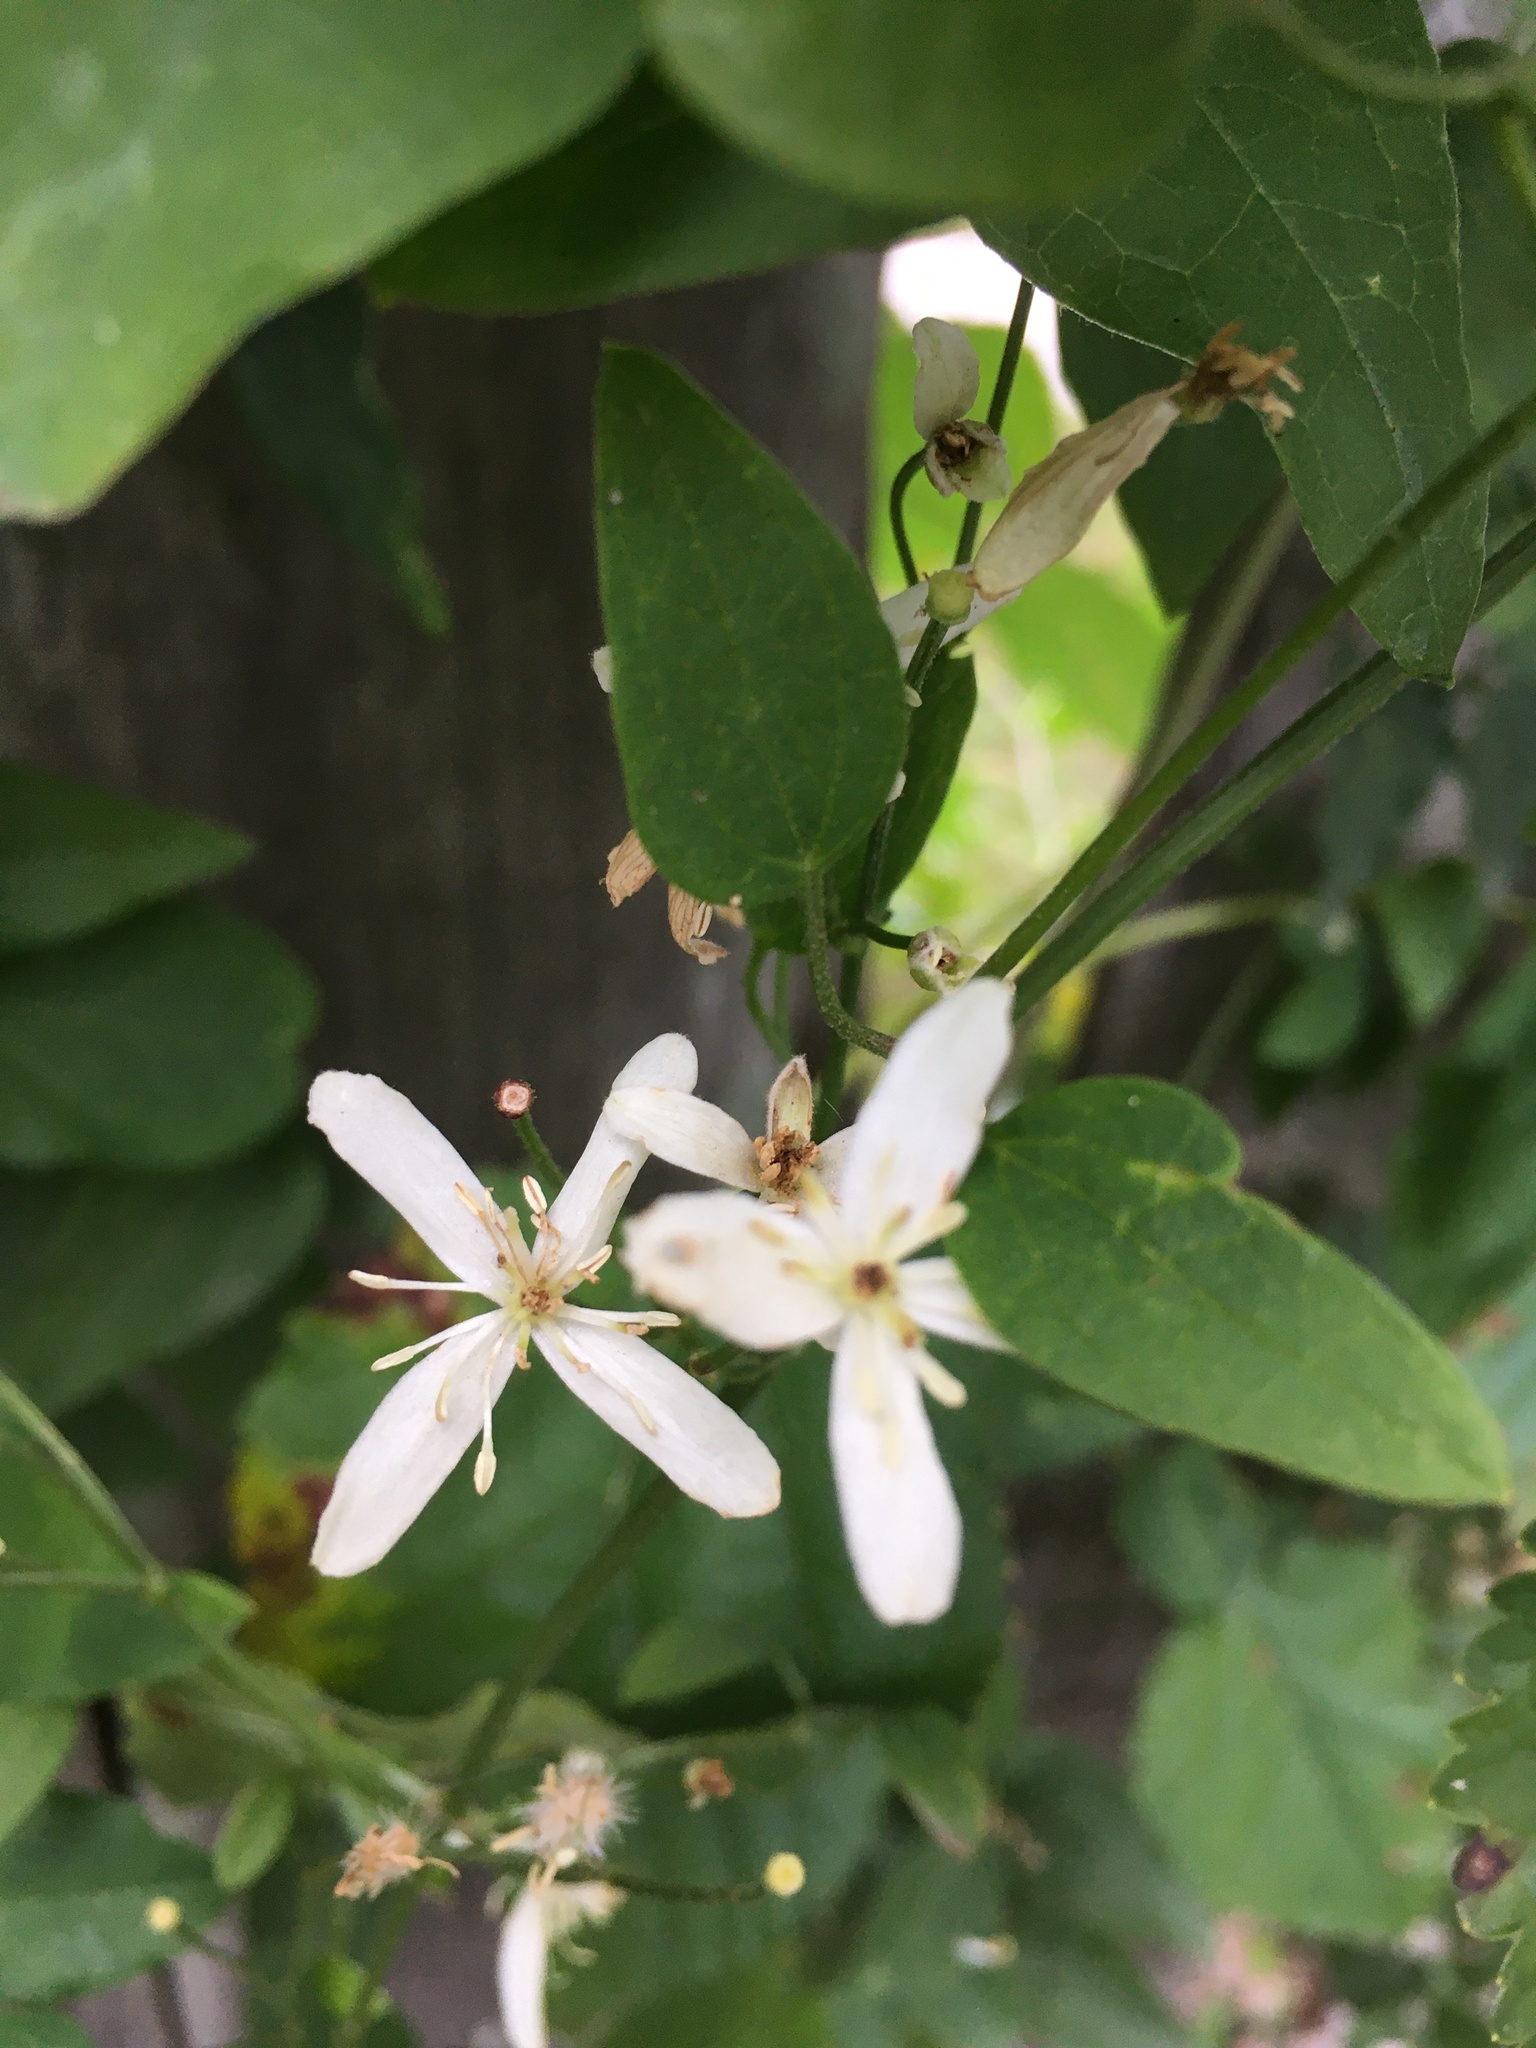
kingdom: Plantae
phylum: Tracheophyta
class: Magnoliopsida
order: Ranunculales
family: Ranunculaceae
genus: Clematis
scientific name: Clematis terniflora
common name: Sweet autumn clematis
